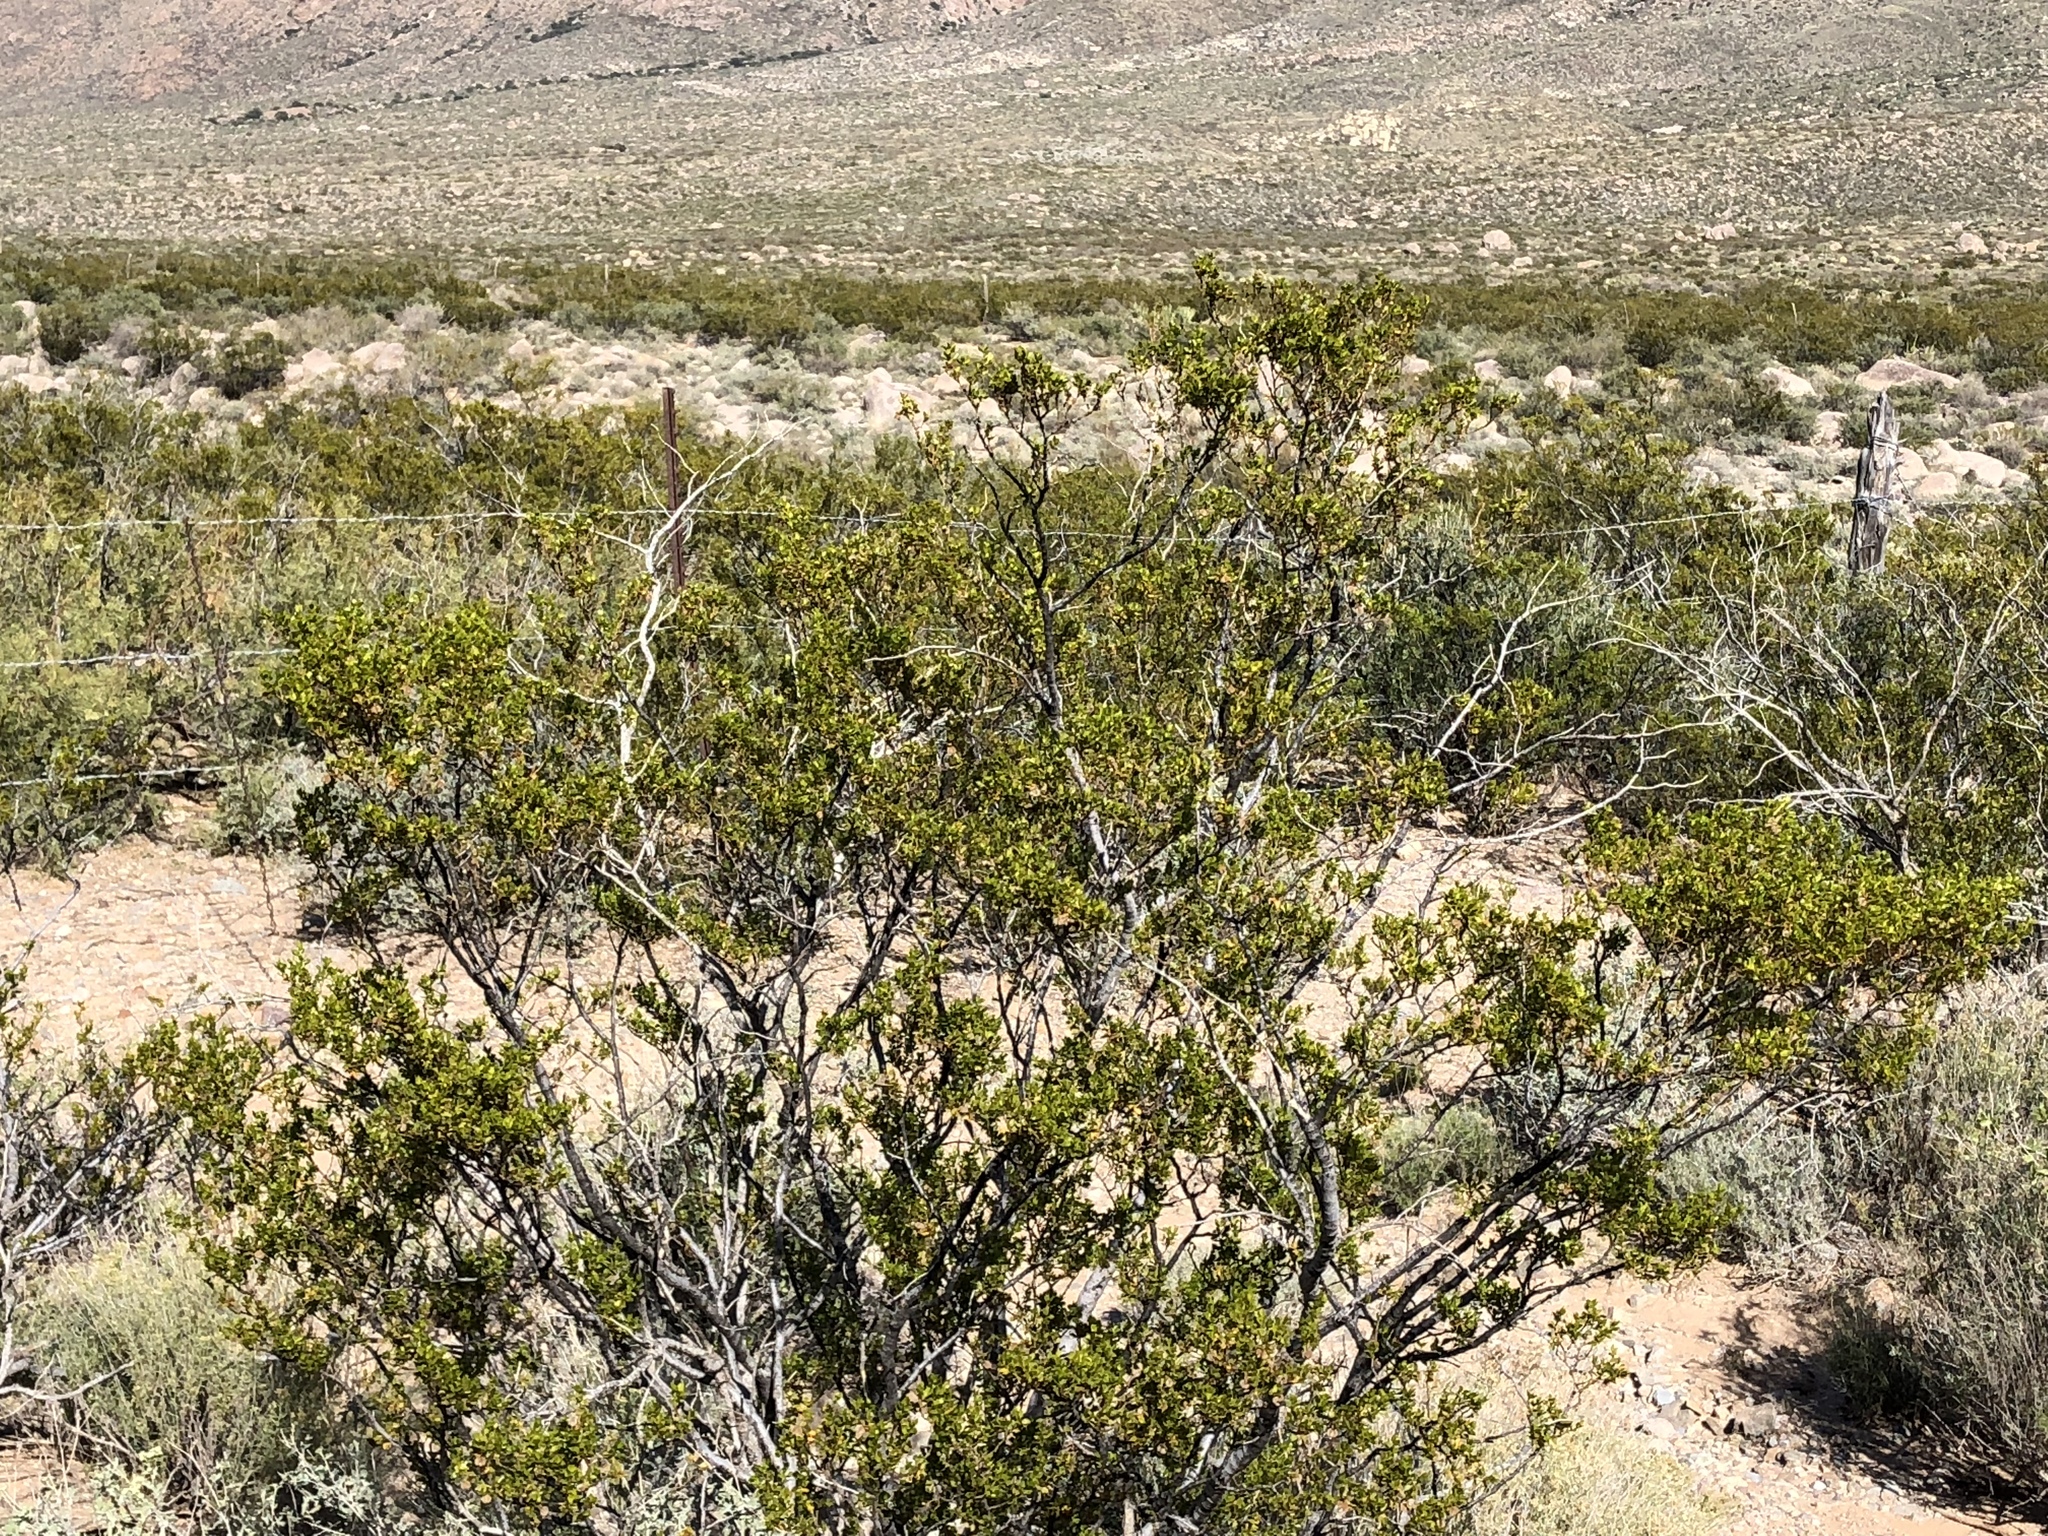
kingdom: Plantae
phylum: Tracheophyta
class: Magnoliopsida
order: Zygophyllales
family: Zygophyllaceae
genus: Larrea
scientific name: Larrea tridentata
